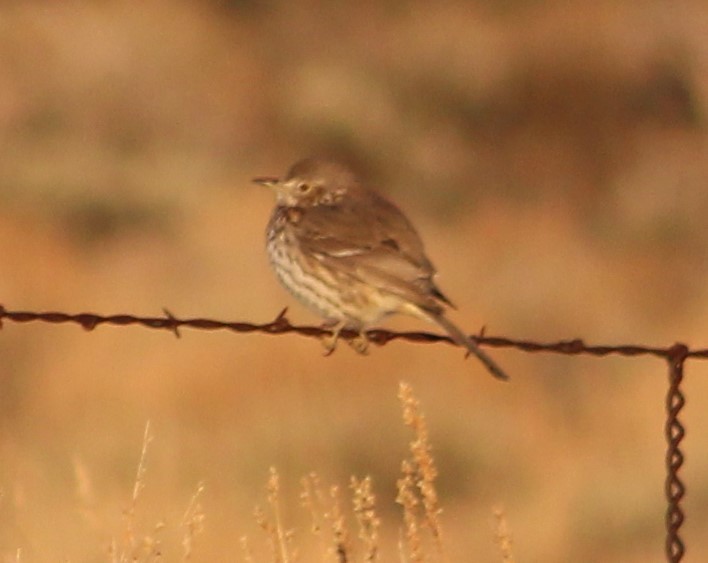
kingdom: Animalia
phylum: Chordata
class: Aves
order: Passeriformes
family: Mimidae
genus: Oreoscoptes
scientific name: Oreoscoptes montanus
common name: Sage thrasher
